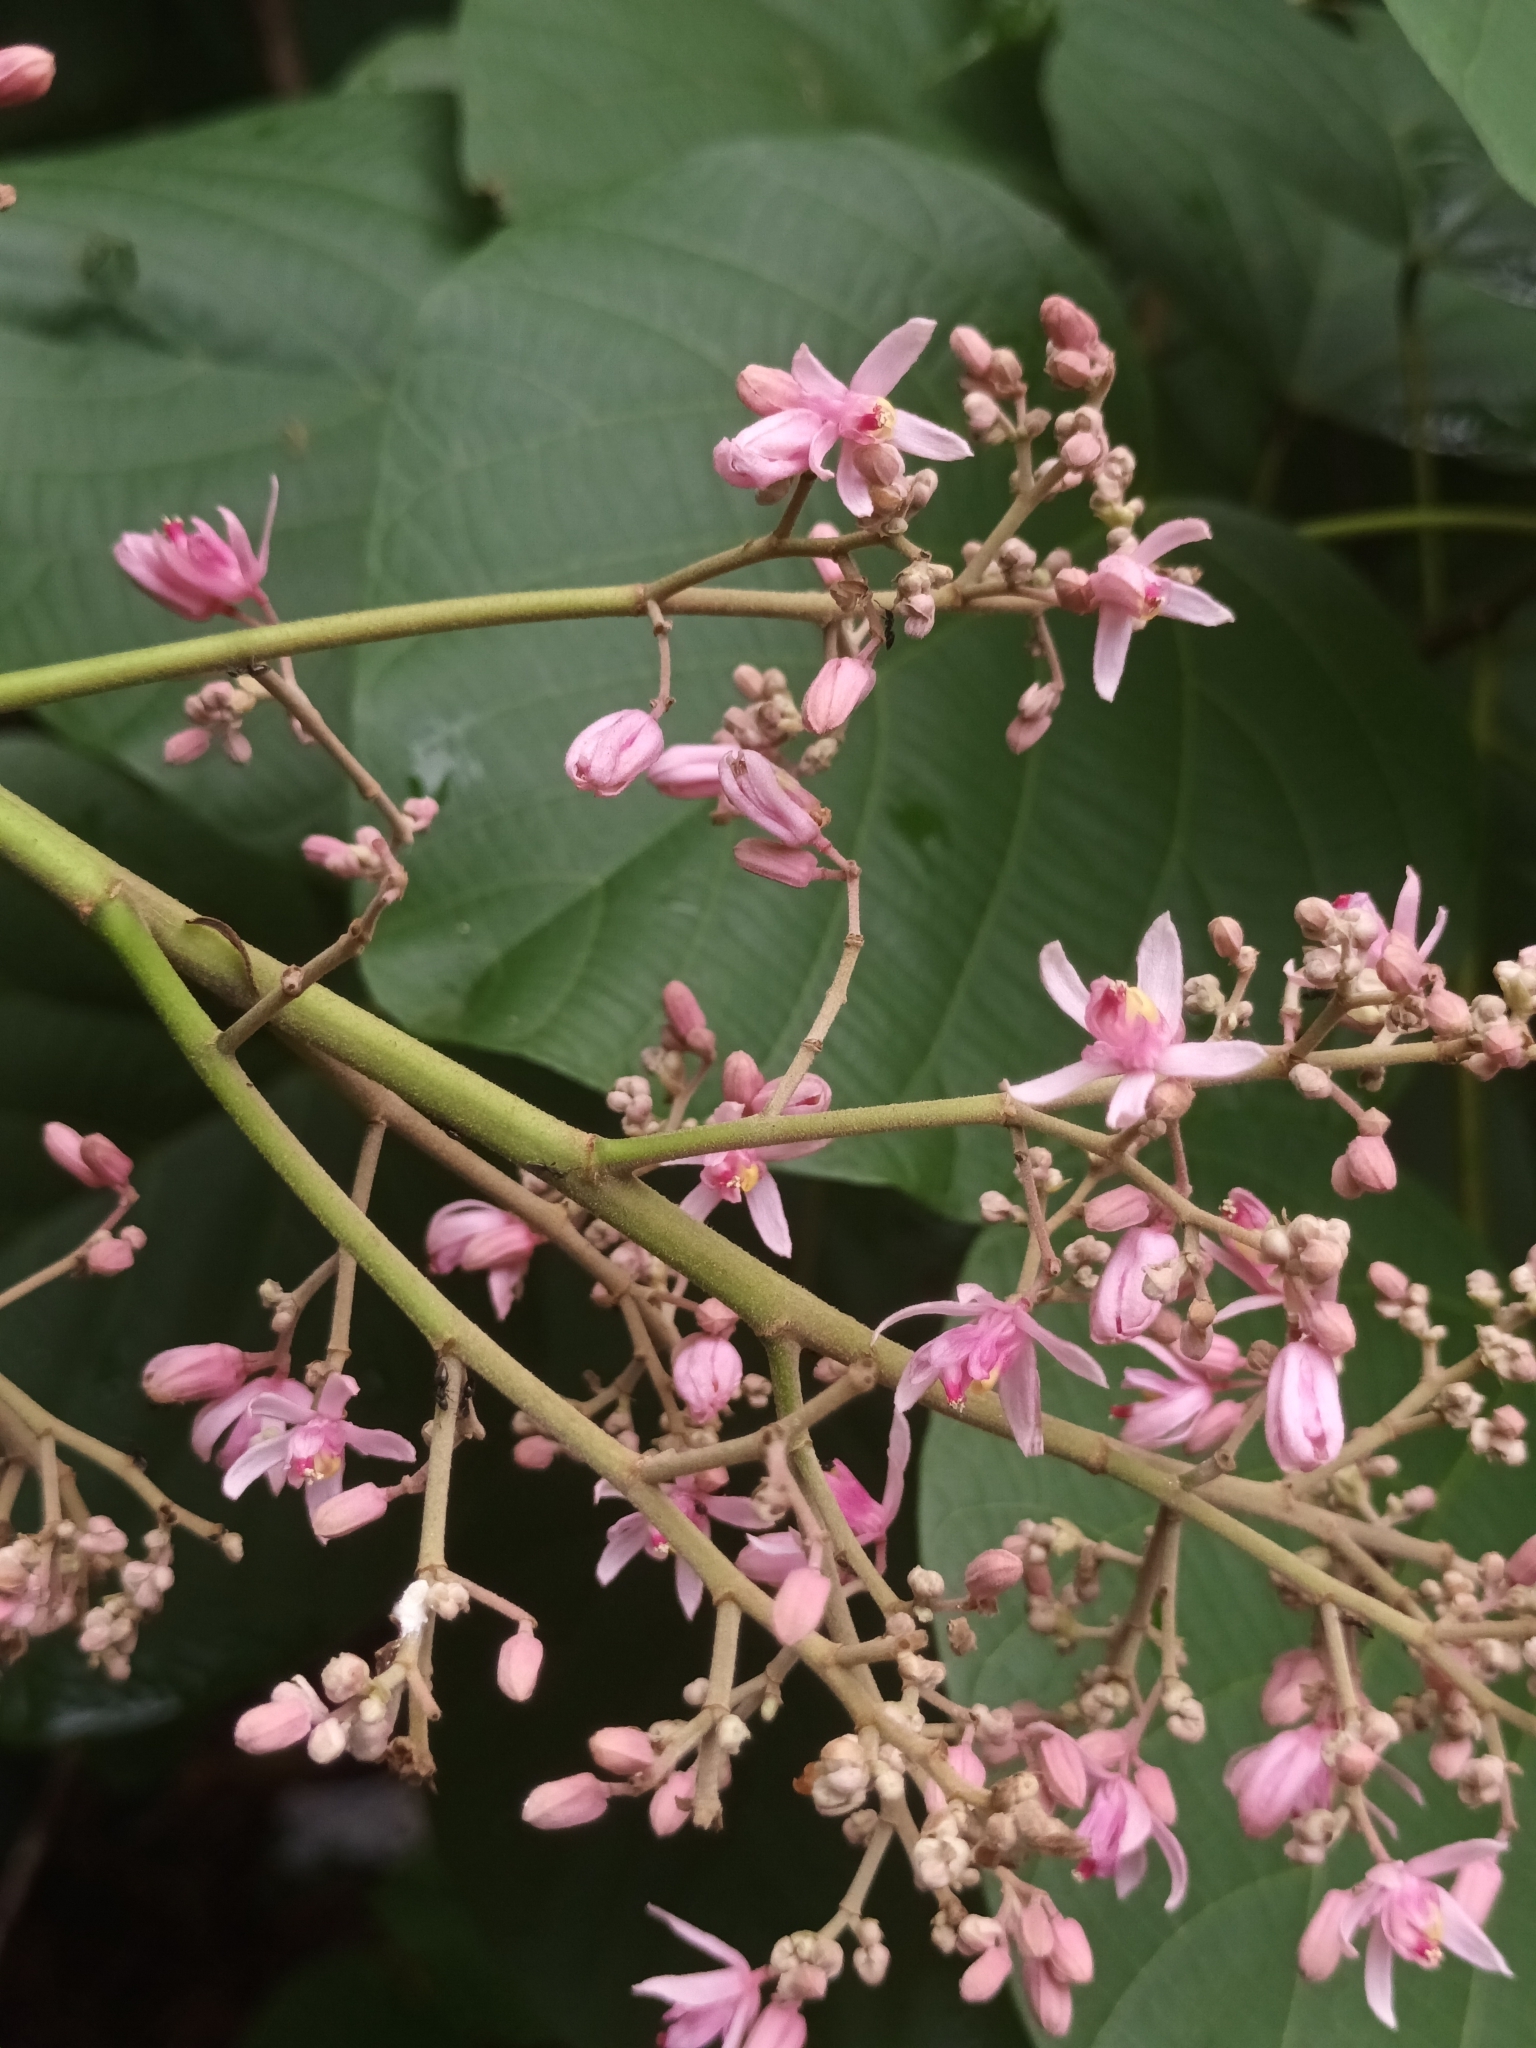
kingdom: Plantae
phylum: Tracheophyta
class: Magnoliopsida
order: Malvales
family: Malvaceae
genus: Kleinhovia
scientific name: Kleinhovia hospita
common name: Guest-tree
